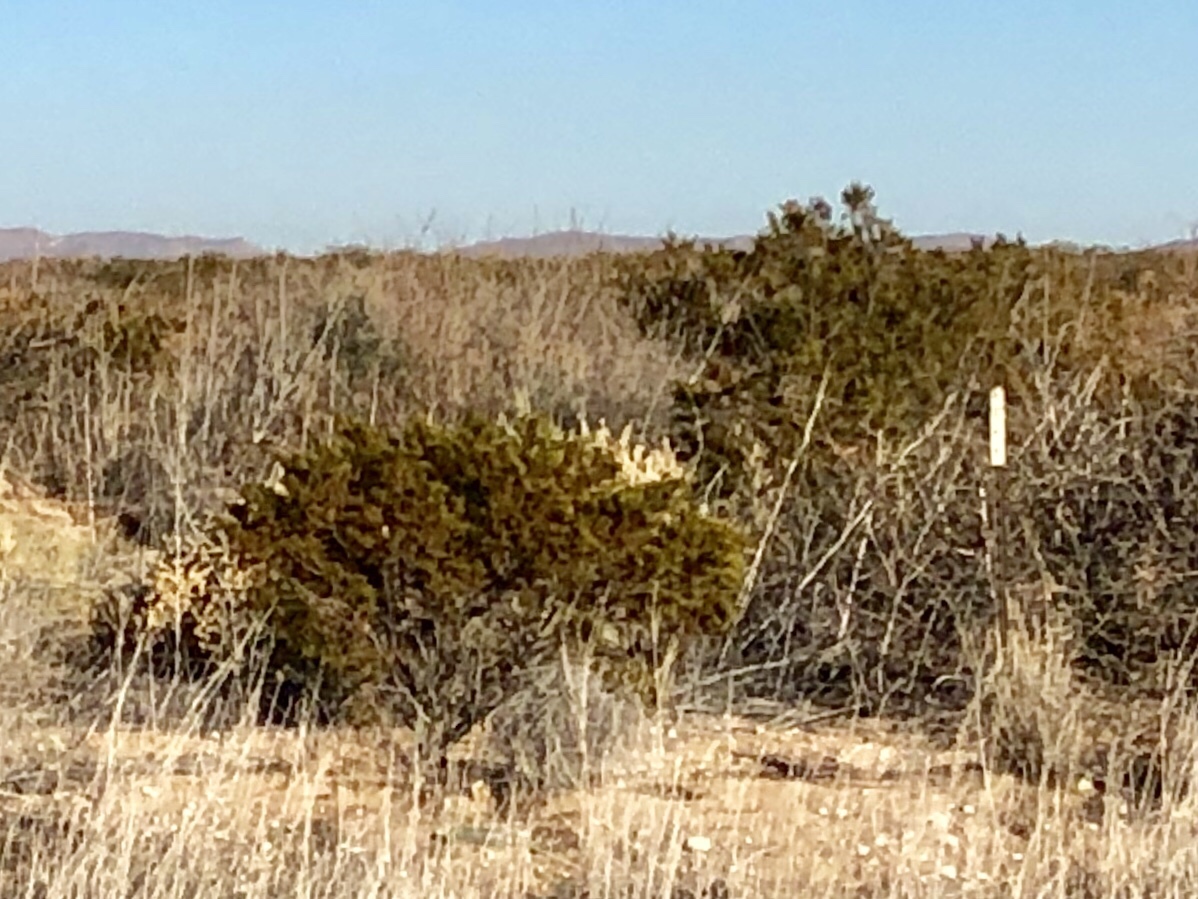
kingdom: Plantae
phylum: Tracheophyta
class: Magnoliopsida
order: Zygophyllales
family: Zygophyllaceae
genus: Larrea
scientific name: Larrea tridentata
